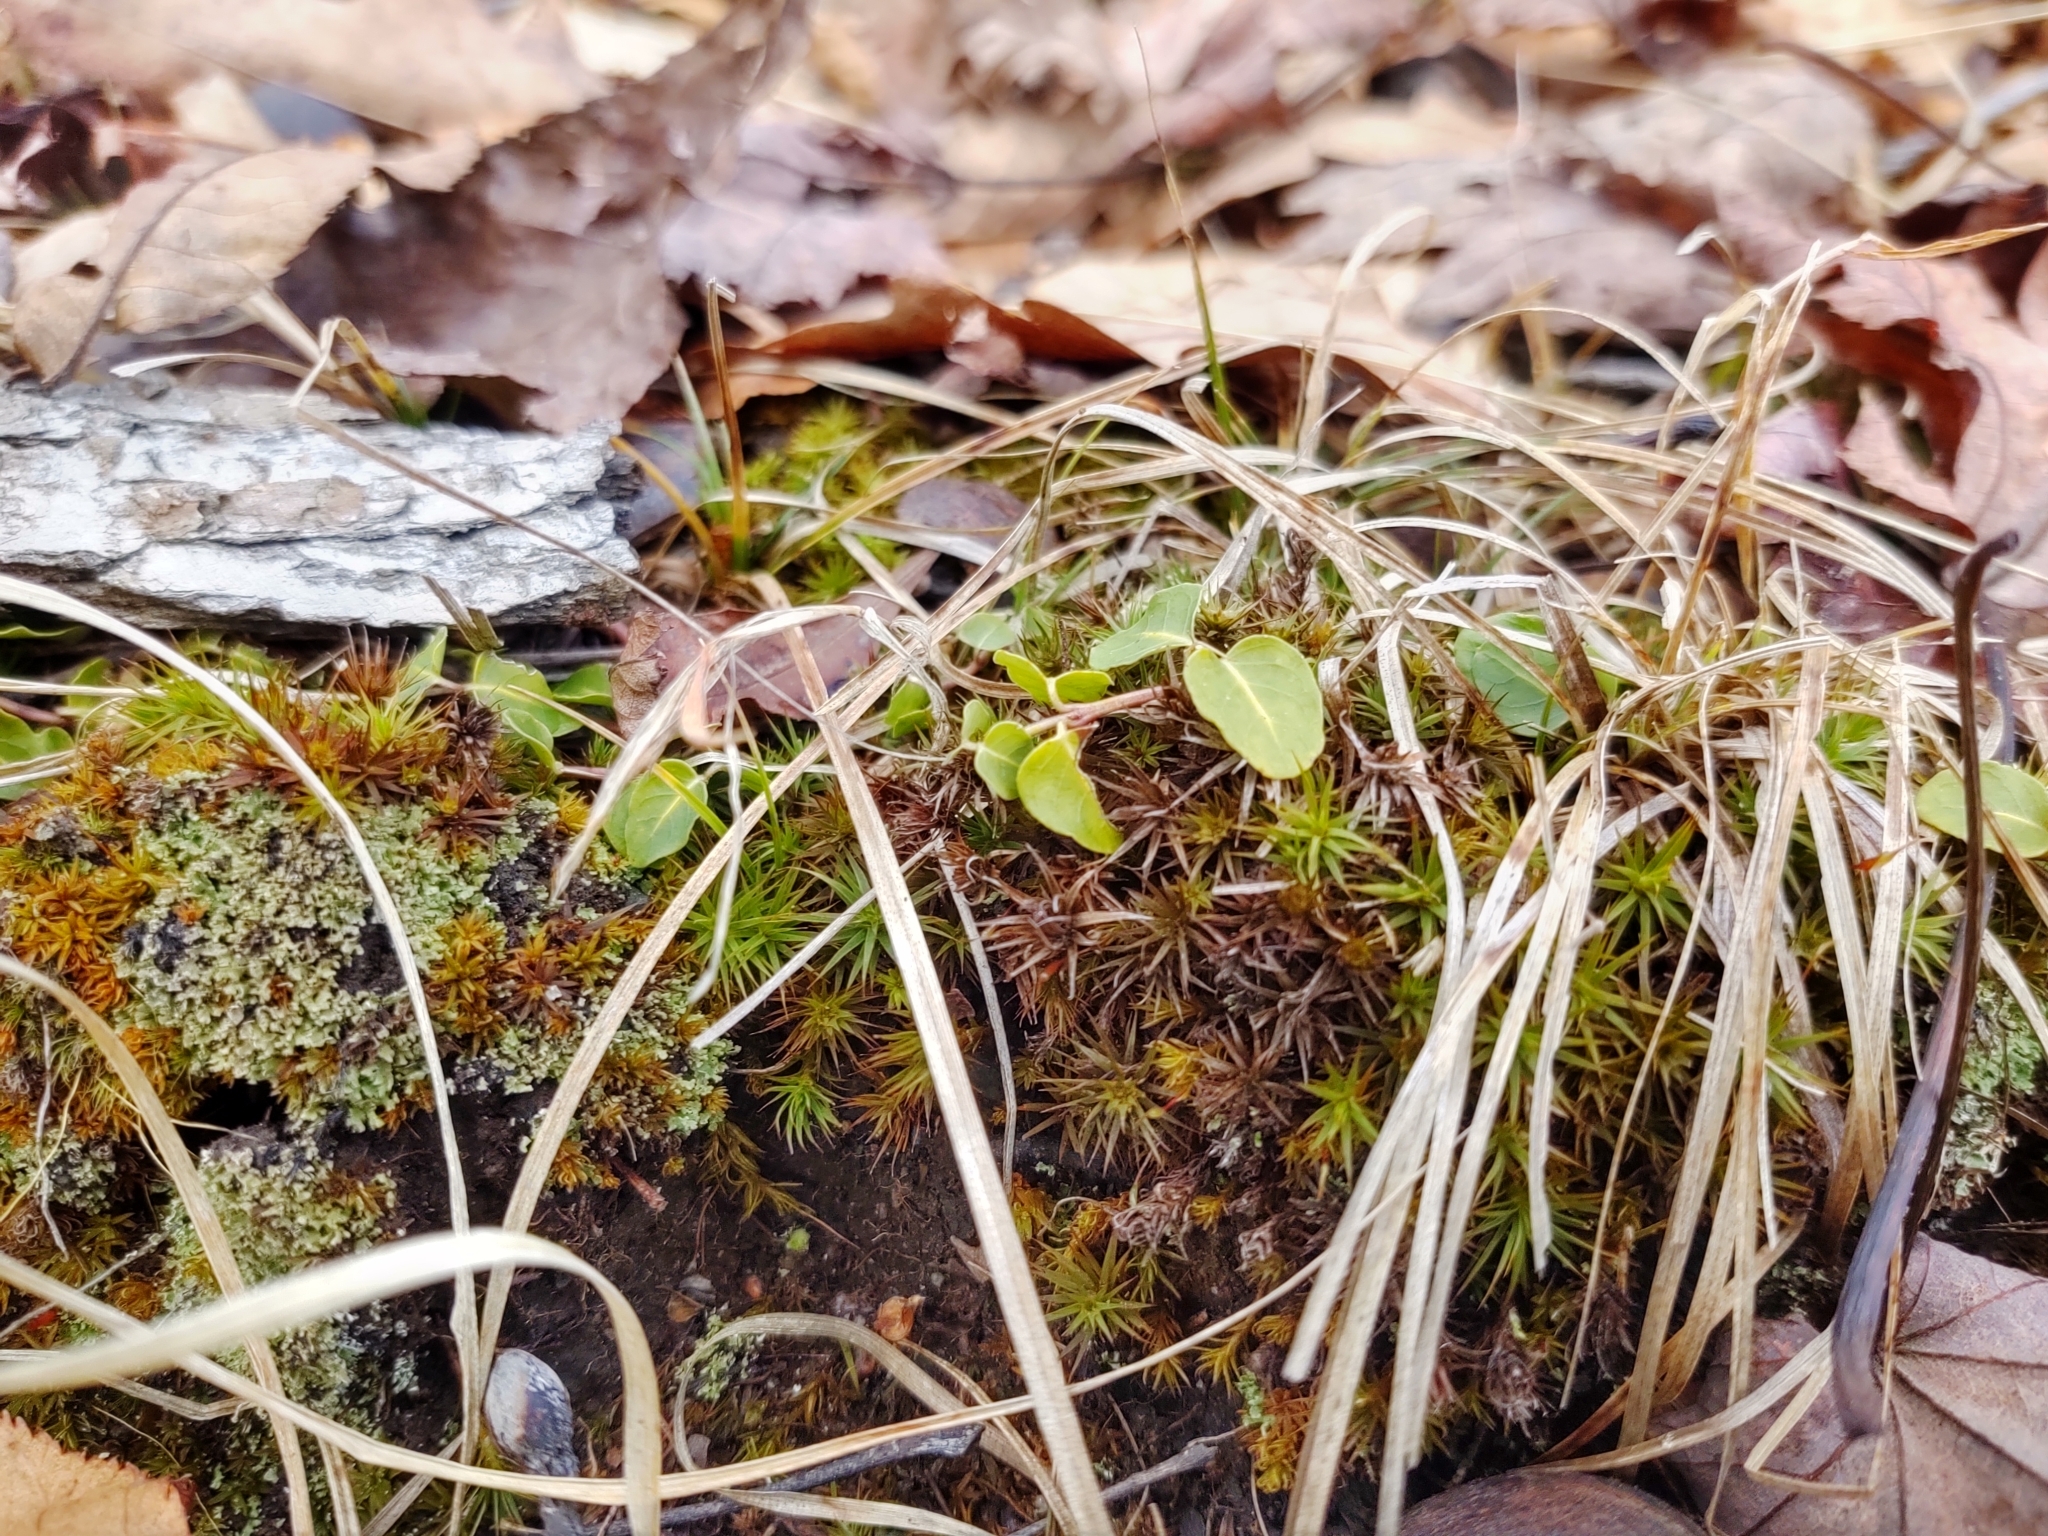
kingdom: Plantae
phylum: Tracheophyta
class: Magnoliopsida
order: Gentianales
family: Rubiaceae
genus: Mitchella
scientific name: Mitchella repens
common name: Partridge-berry
